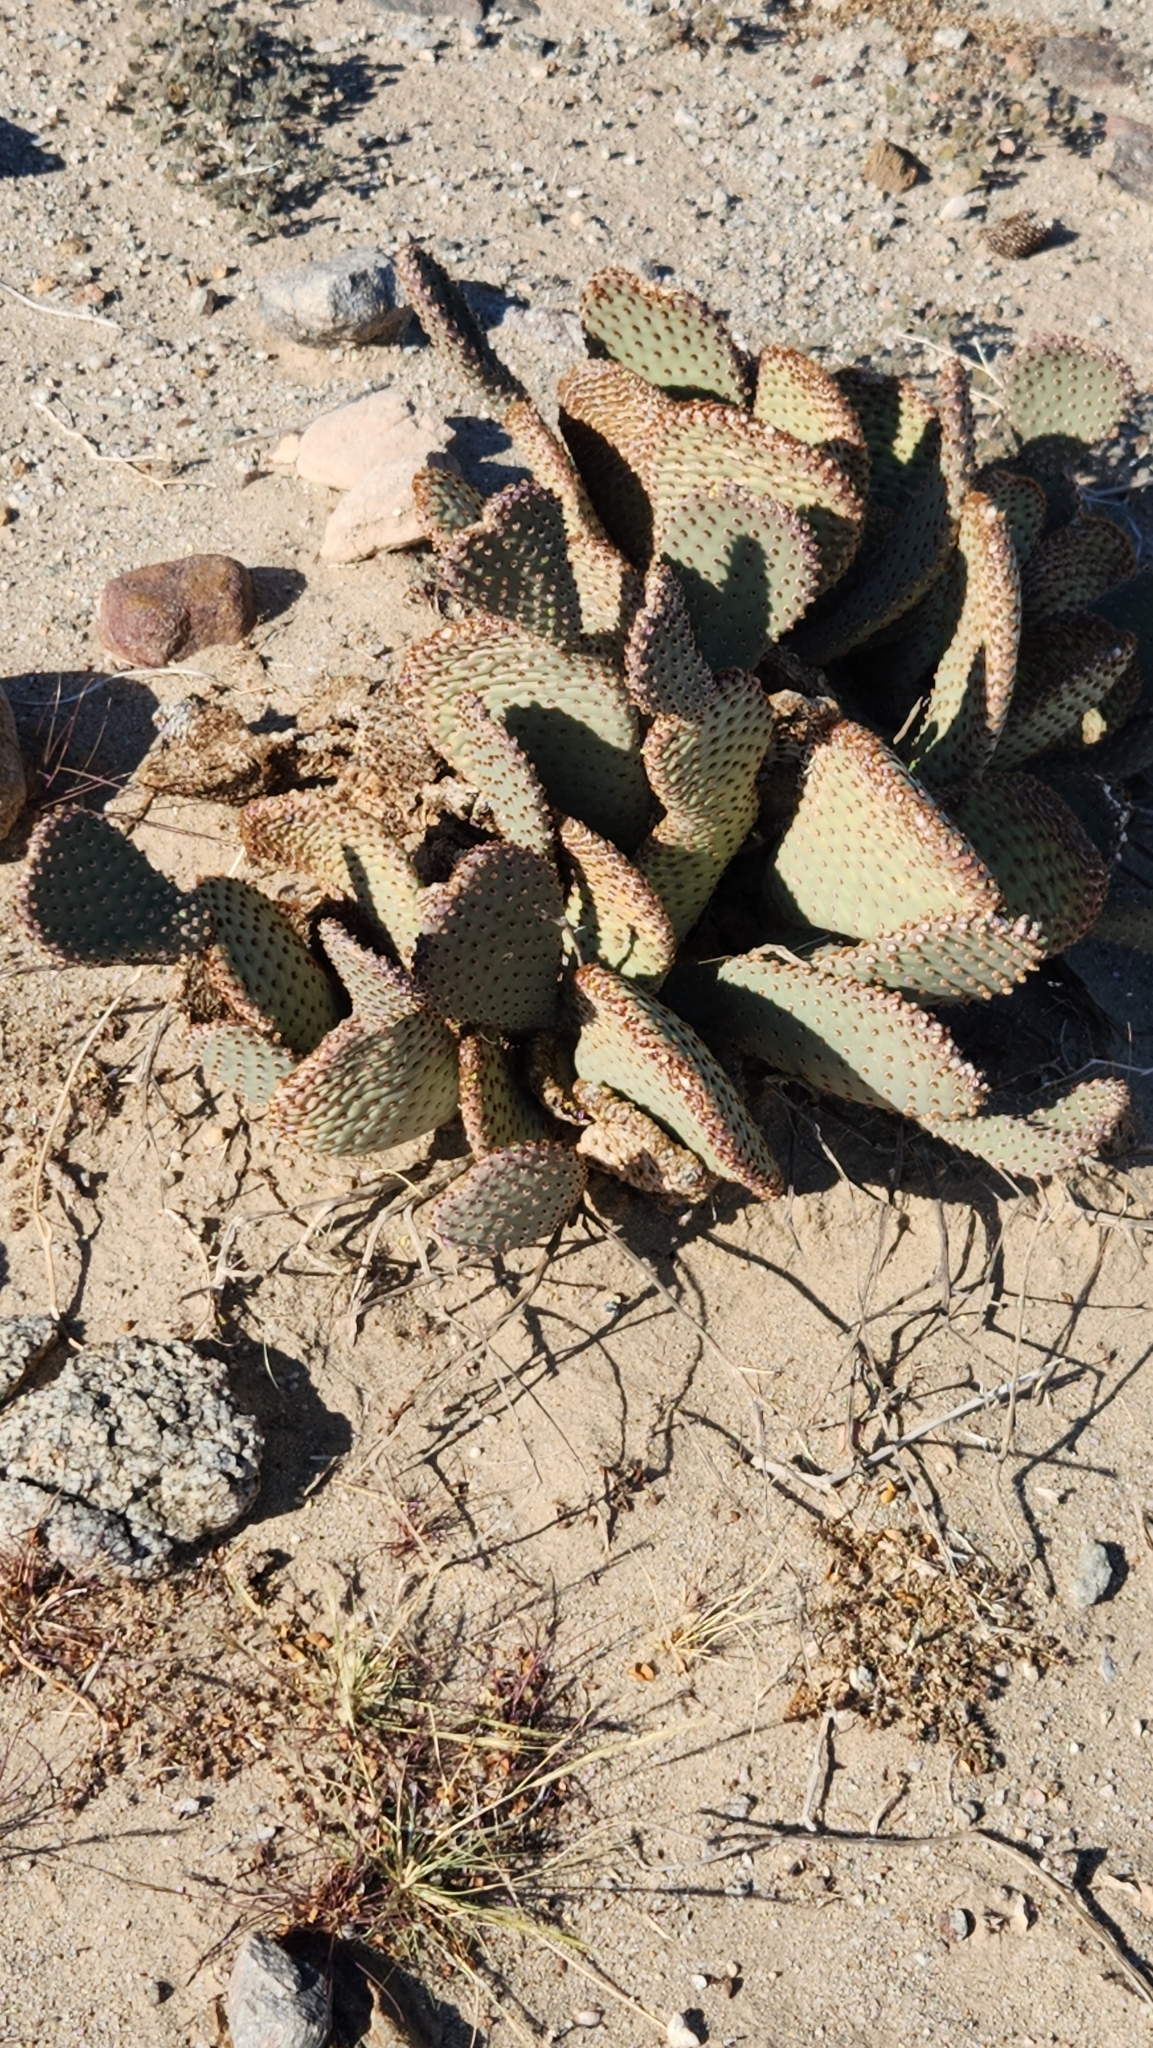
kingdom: Plantae
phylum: Tracheophyta
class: Magnoliopsida
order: Caryophyllales
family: Cactaceae
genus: Opuntia
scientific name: Opuntia basilaris
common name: Beavertail prickly-pear
